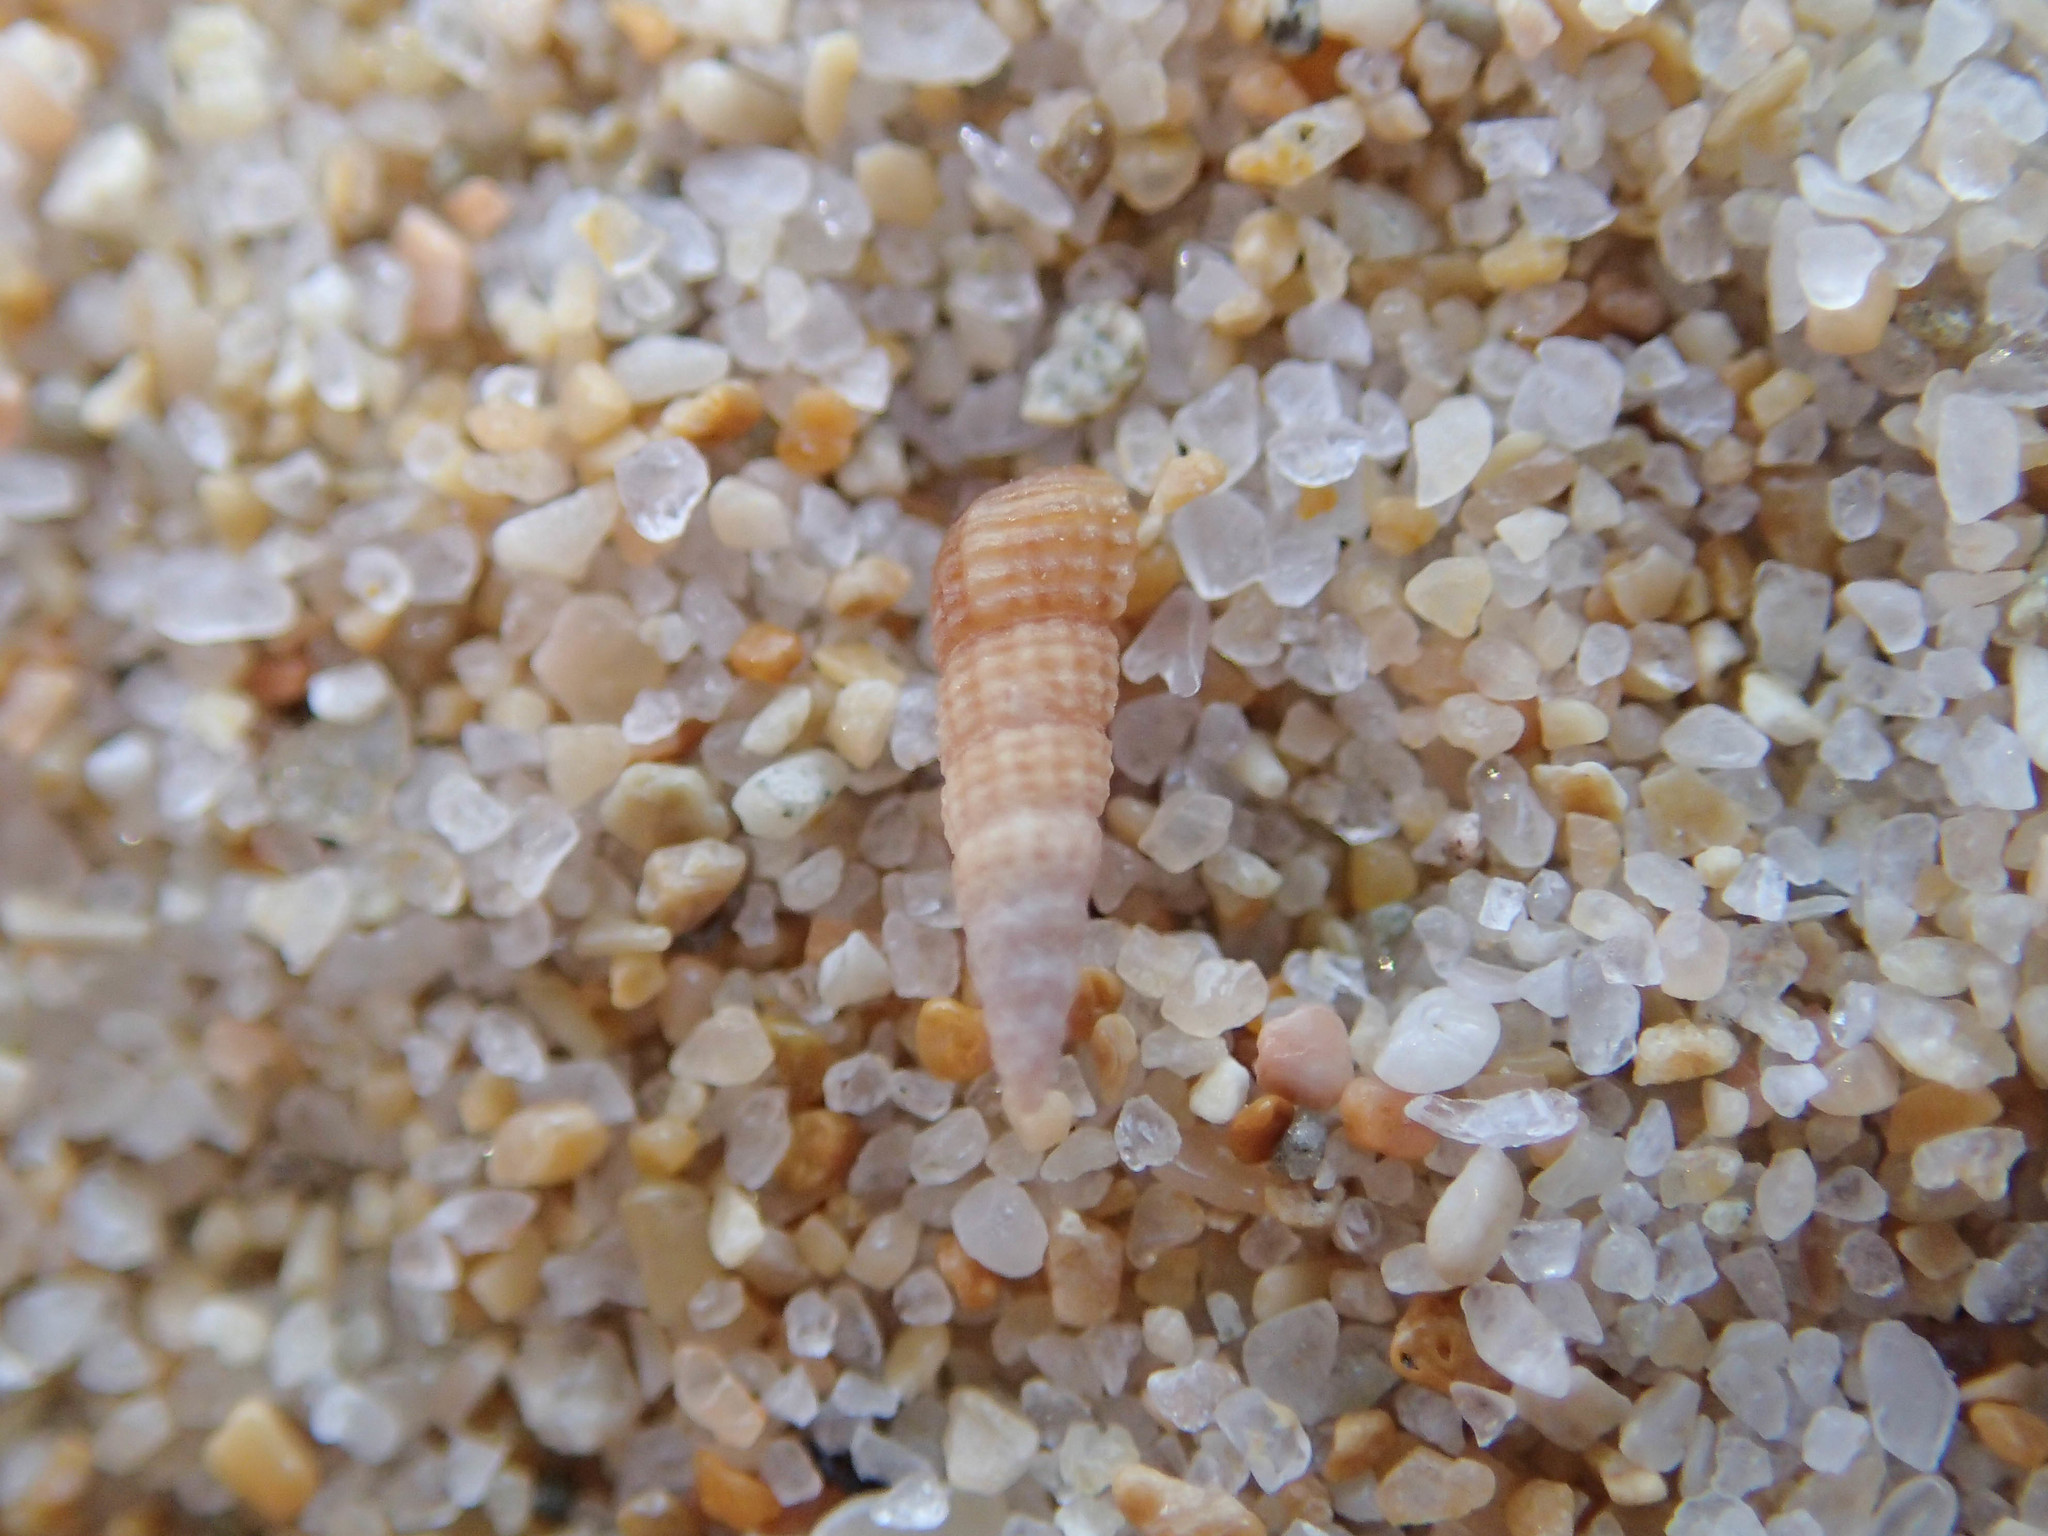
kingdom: Animalia
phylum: Mollusca
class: Gastropoda
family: Cerithiidae
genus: Bittium
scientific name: Bittium reticulatum
